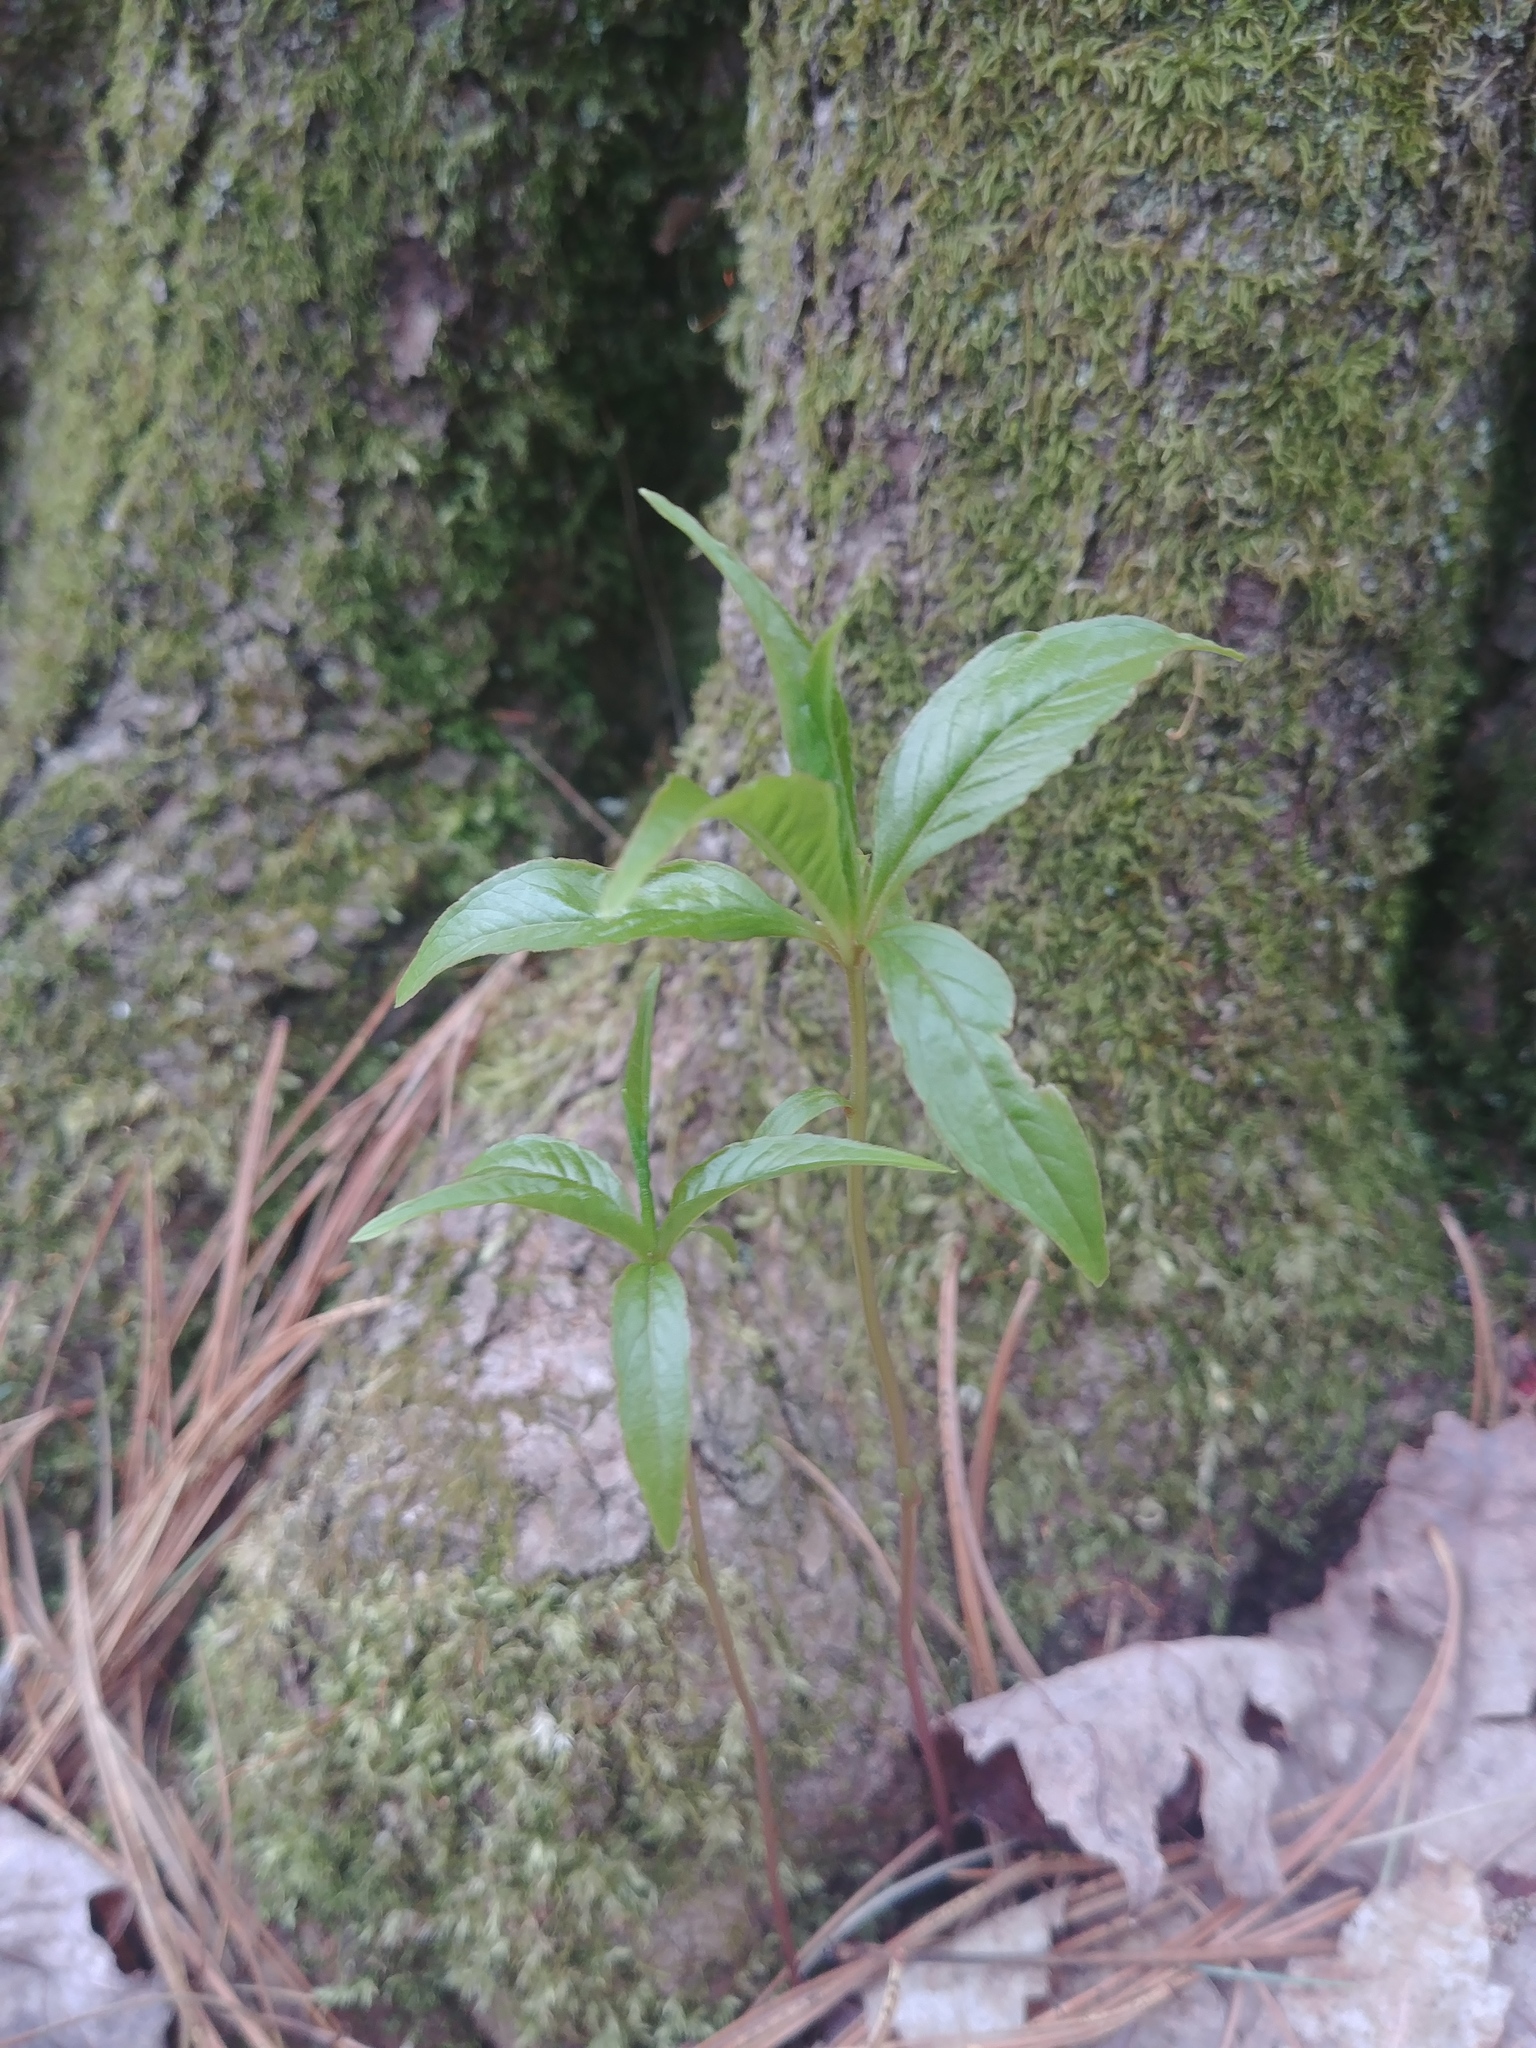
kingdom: Plantae
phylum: Tracheophyta
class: Magnoliopsida
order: Ericales
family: Primulaceae
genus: Lysimachia
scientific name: Lysimachia borealis
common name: American starflower
